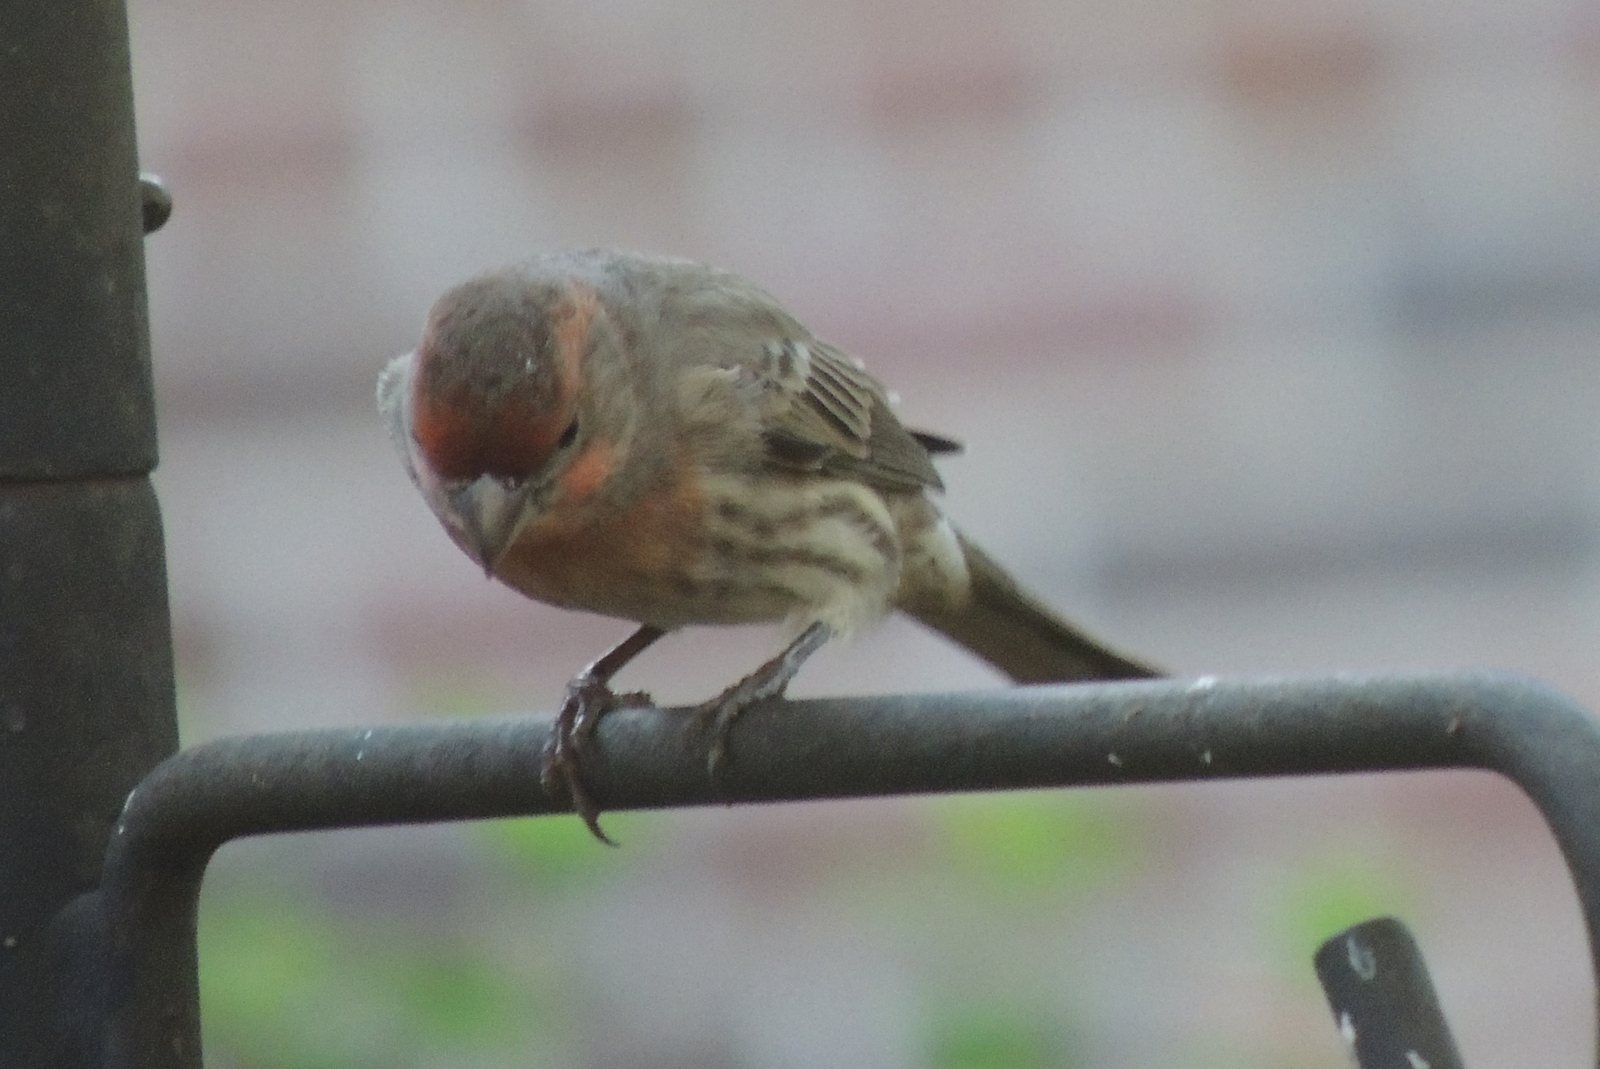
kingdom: Animalia
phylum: Chordata
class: Aves
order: Passeriformes
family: Fringillidae
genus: Haemorhous
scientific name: Haemorhous mexicanus
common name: House finch
